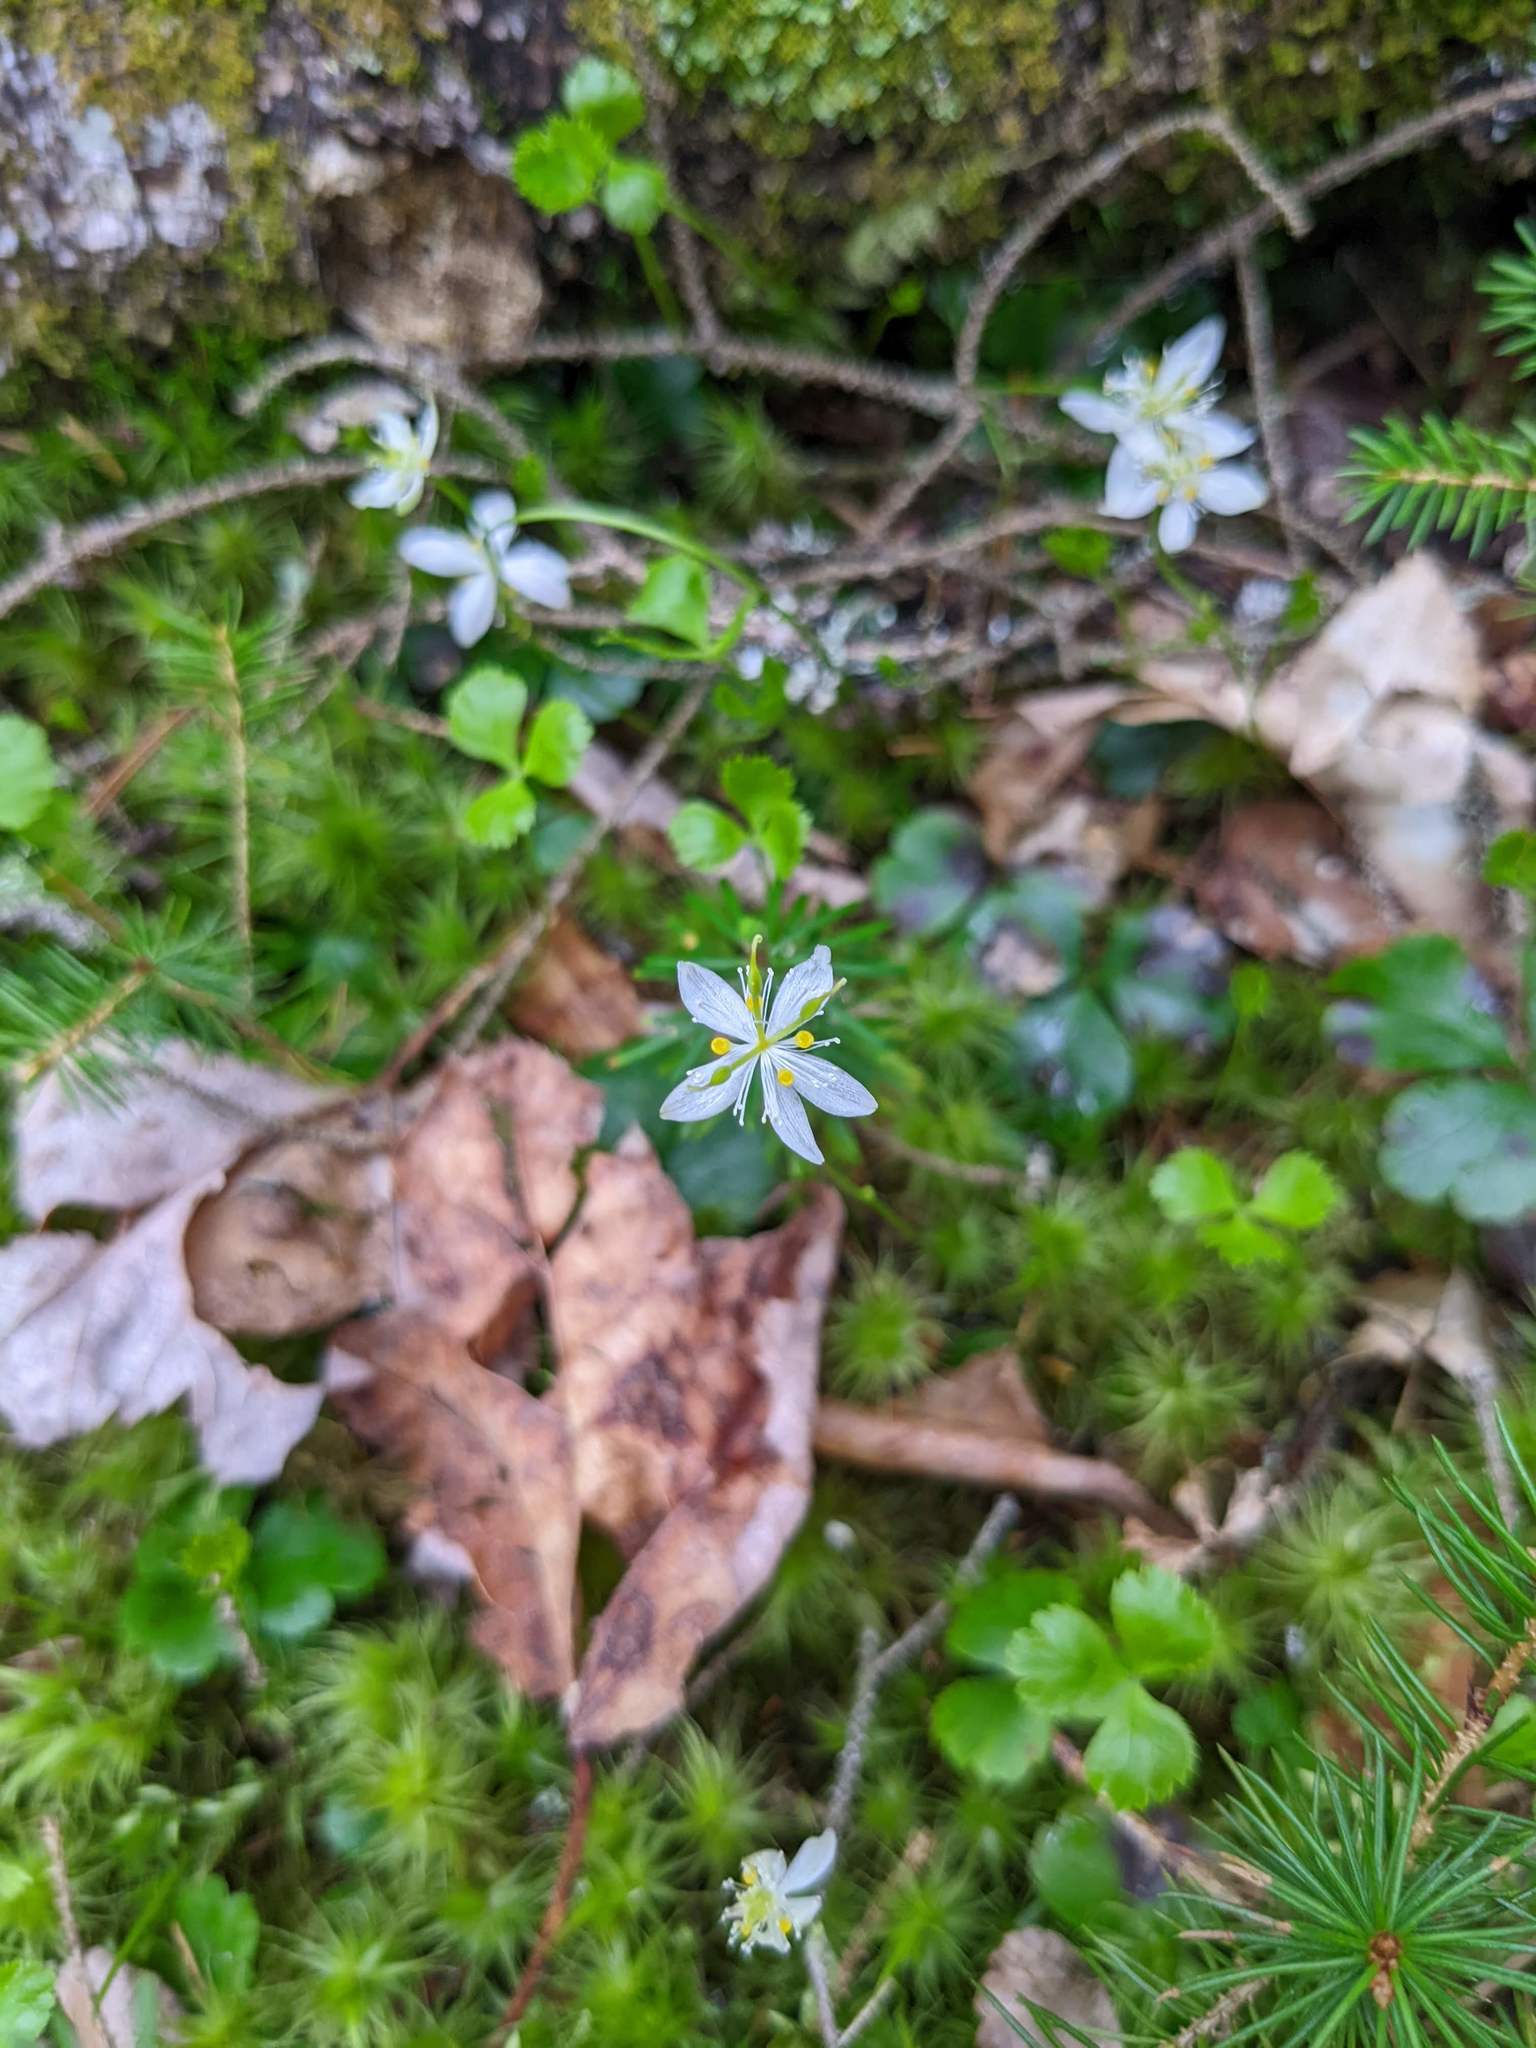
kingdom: Plantae
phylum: Tracheophyta
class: Magnoliopsida
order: Ranunculales
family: Ranunculaceae
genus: Coptis
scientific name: Coptis trifolia
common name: Canker-root
